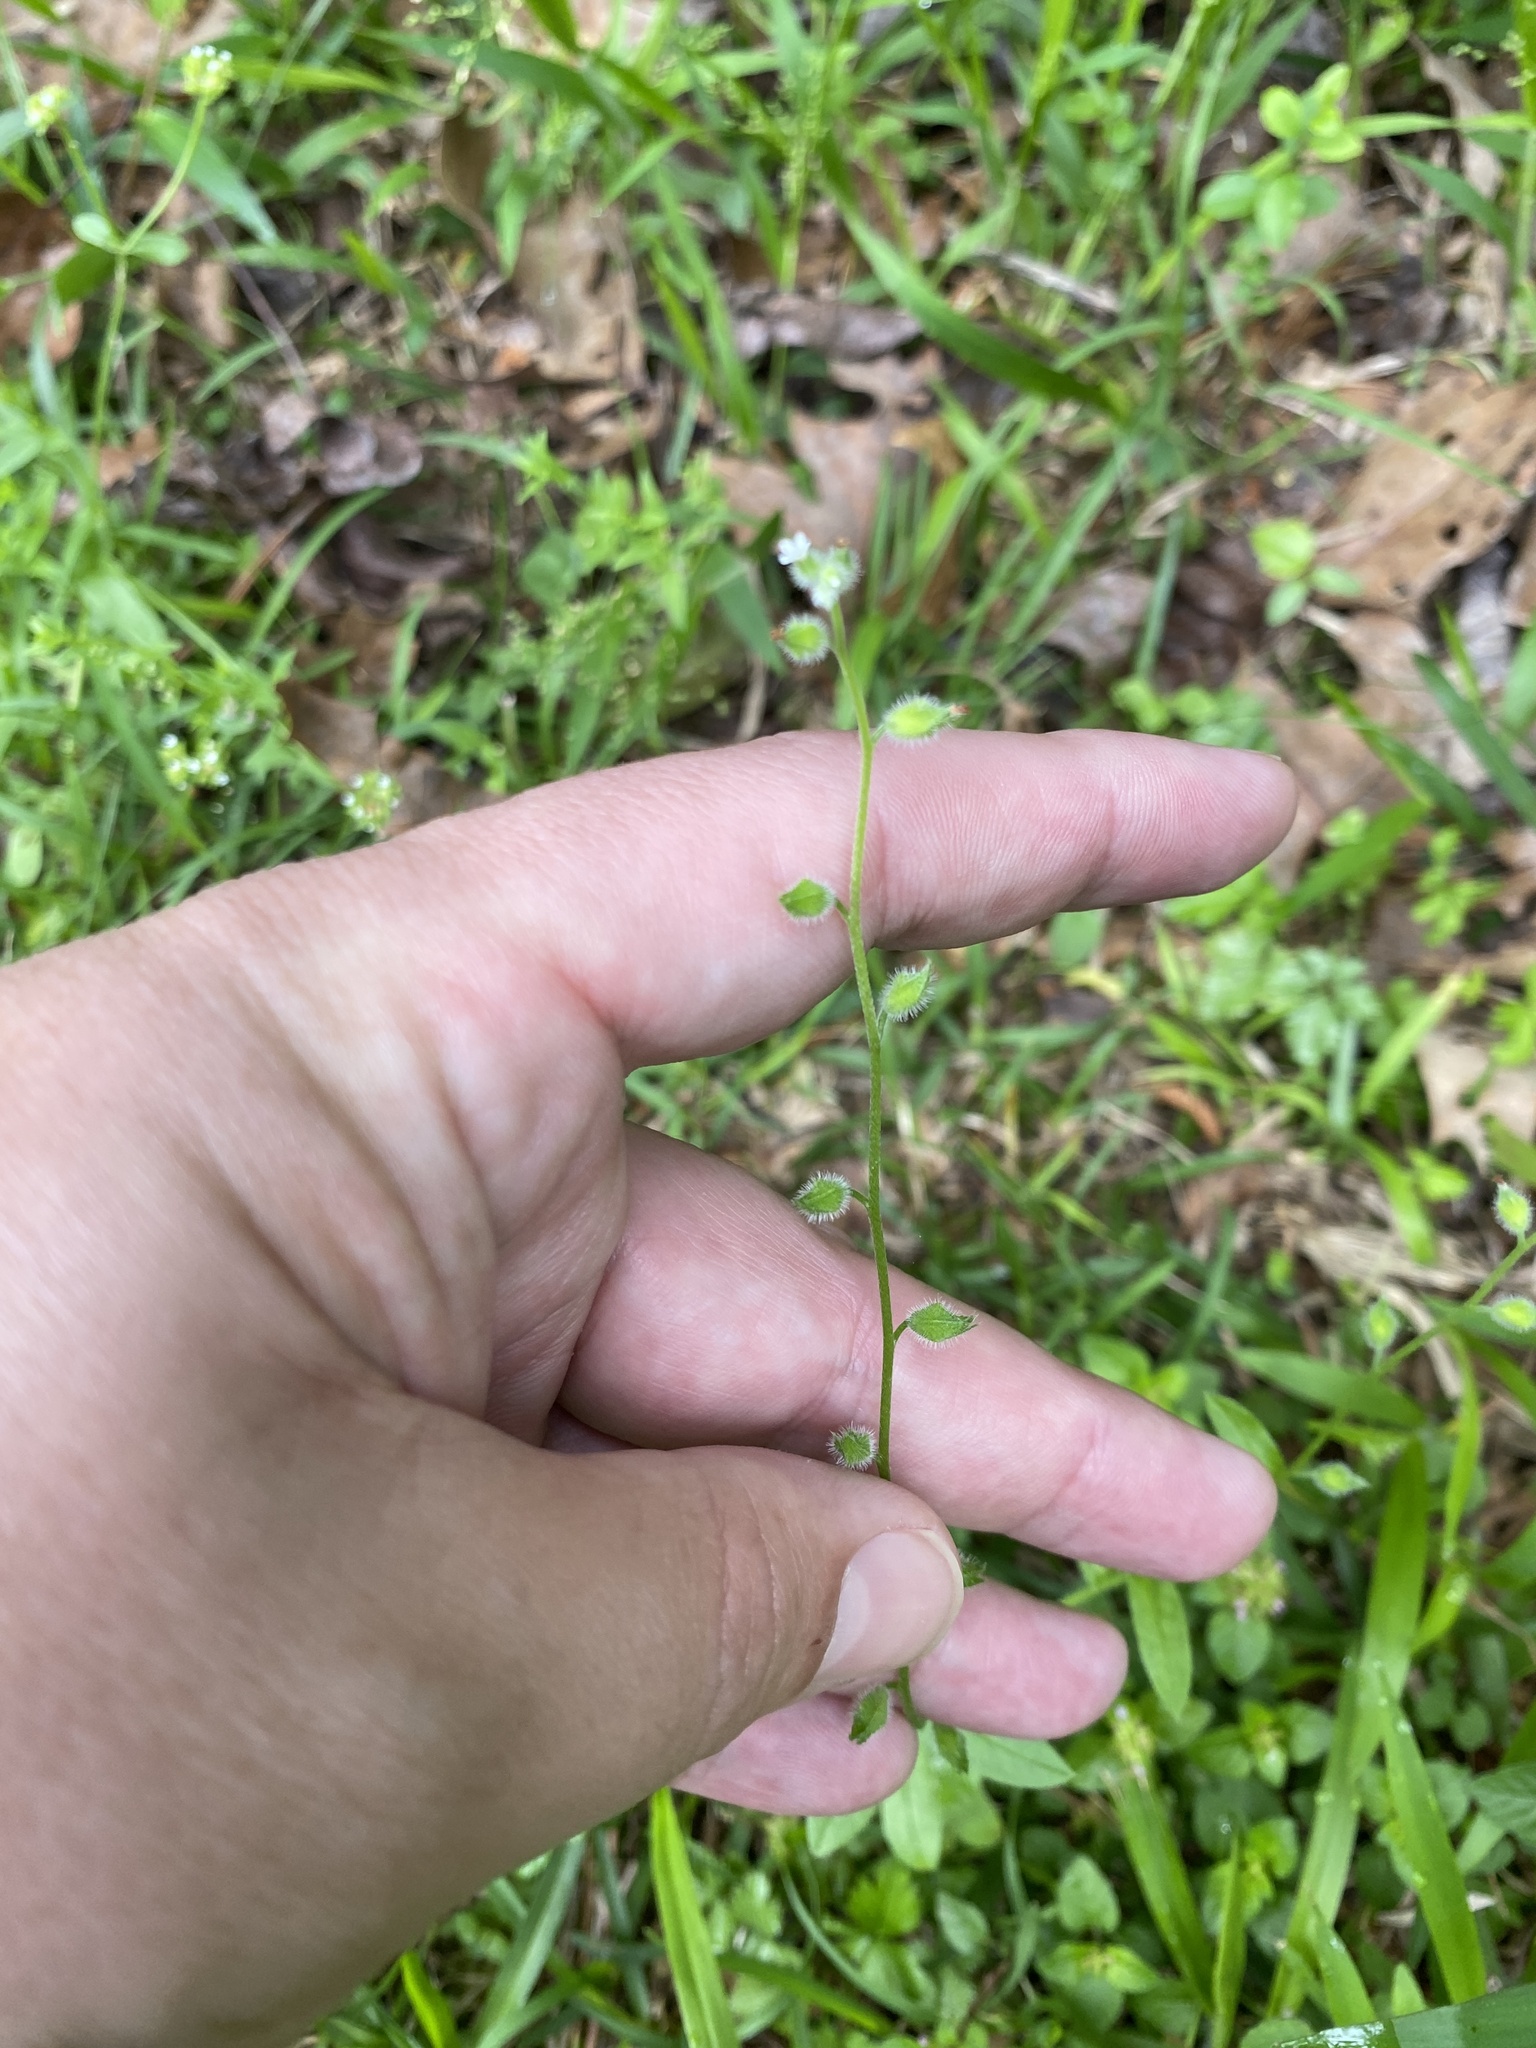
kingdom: Plantae
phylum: Tracheophyta
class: Magnoliopsida
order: Boraginales
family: Boraginaceae
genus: Myosotis
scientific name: Myosotis macrosperma
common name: Large-seed forget-me-not
